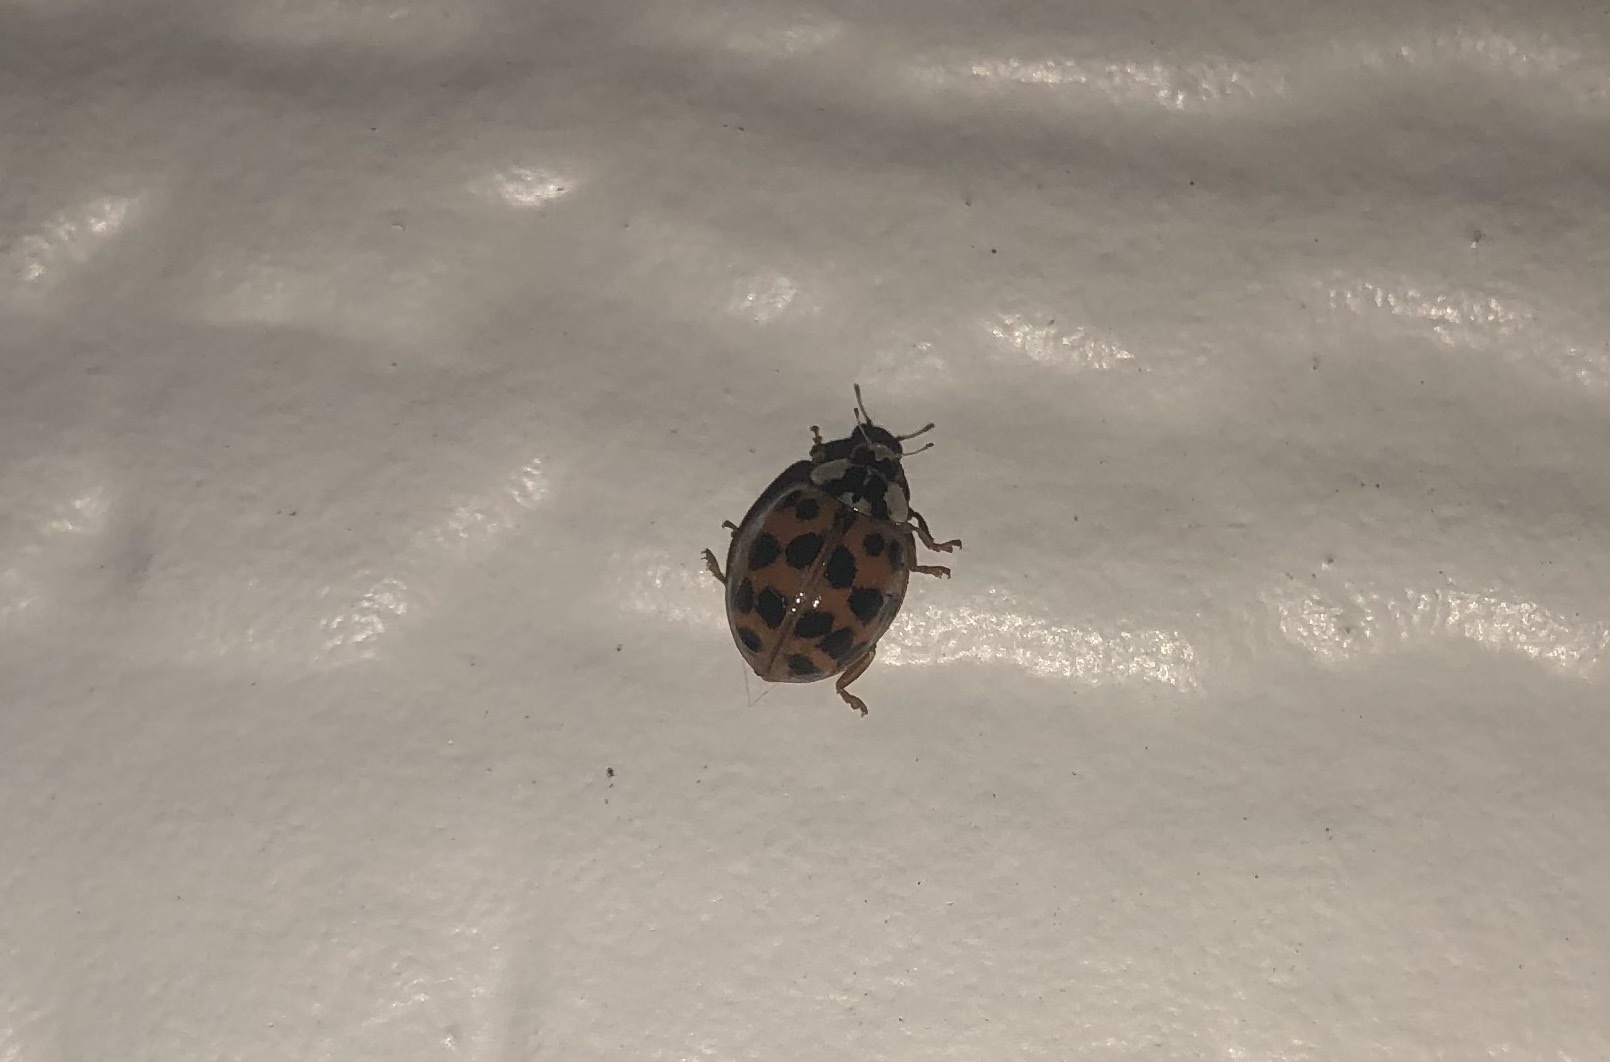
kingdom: Animalia
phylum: Arthropoda
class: Insecta
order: Coleoptera
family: Coccinellidae
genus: Harmonia
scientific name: Harmonia axyridis
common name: Harlequin ladybird
